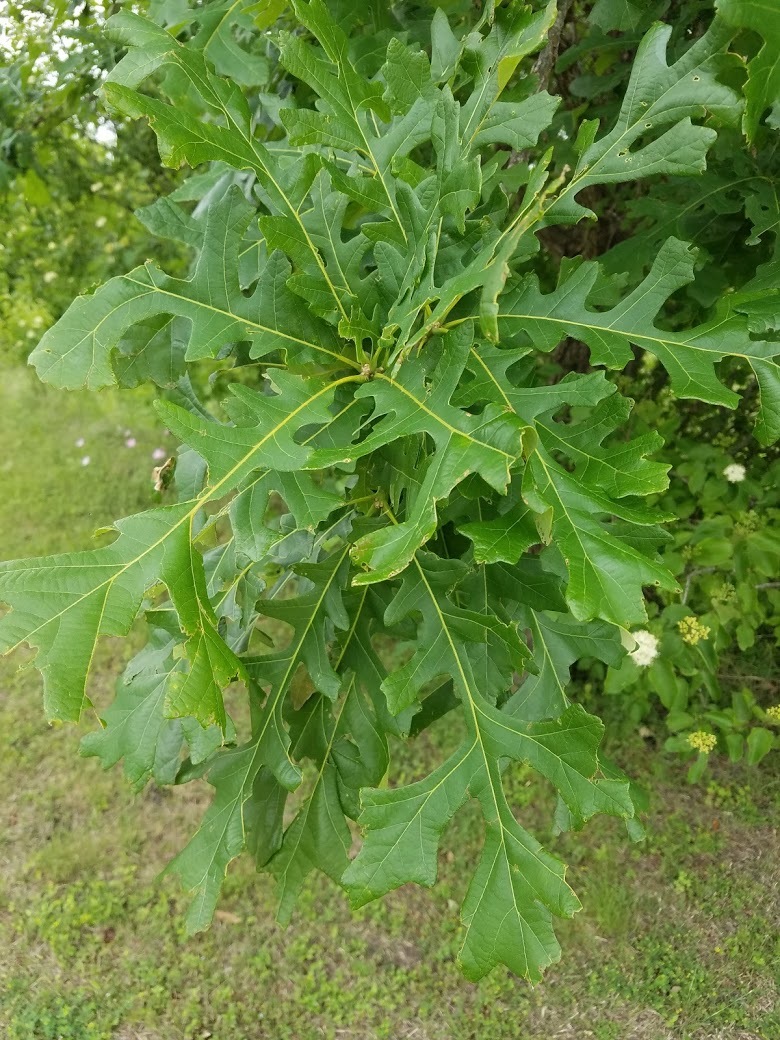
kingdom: Plantae
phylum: Tracheophyta
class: Magnoliopsida
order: Fagales
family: Fagaceae
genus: Quercus
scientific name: Quercus macrocarpa
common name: Bur oak
